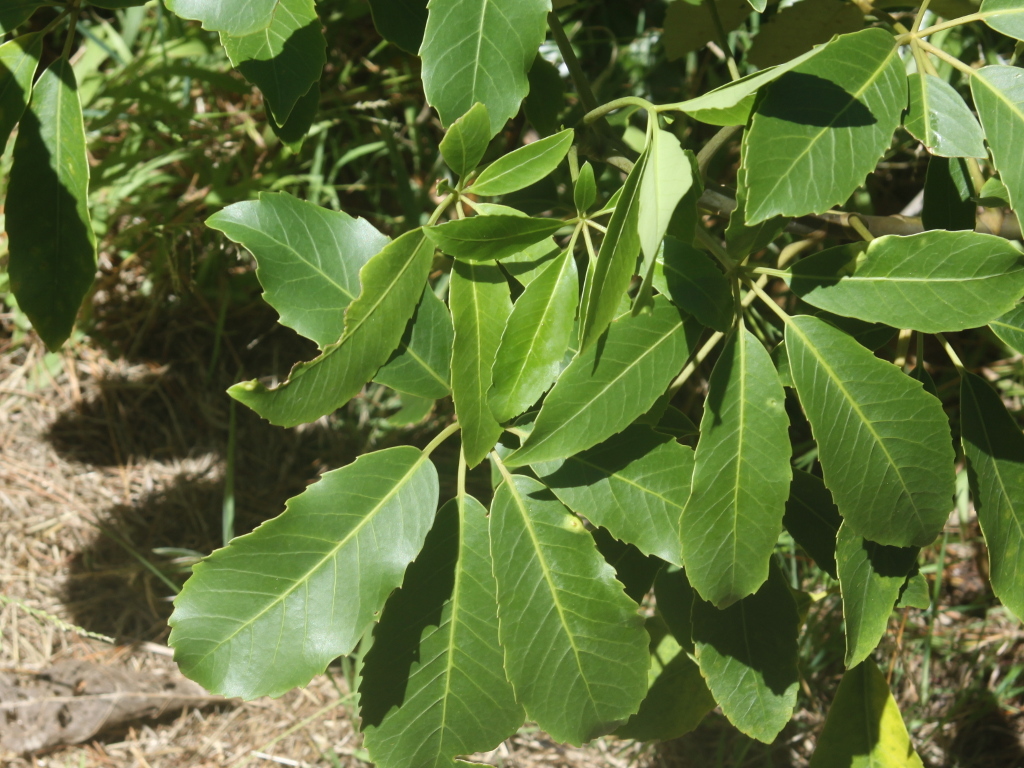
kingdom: Plantae
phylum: Tracheophyta
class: Magnoliopsida
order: Apiales
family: Araliaceae
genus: Neopanax
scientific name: Neopanax arboreus
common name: Five-fingers
